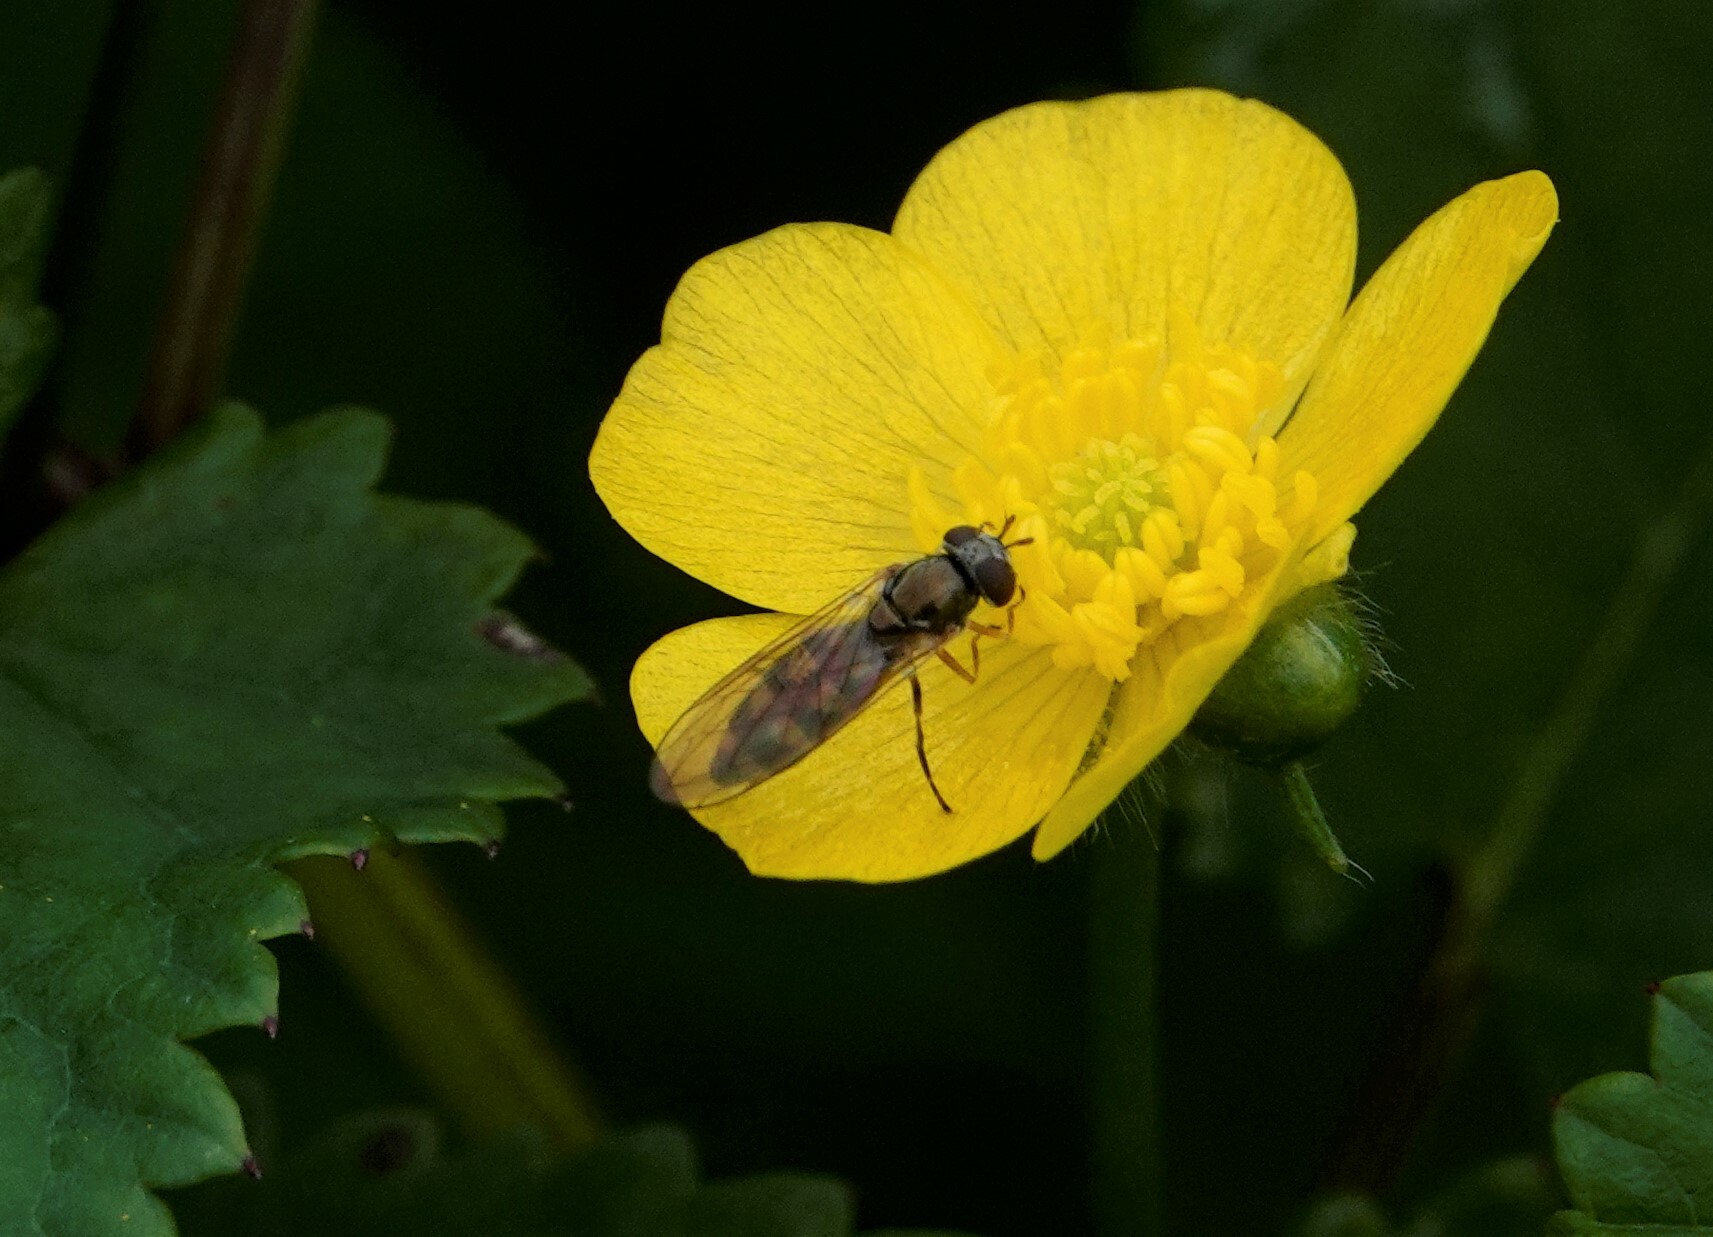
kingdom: Animalia
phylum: Arthropoda
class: Insecta
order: Diptera
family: Syrphidae
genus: Melanostoma
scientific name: Melanostoma mellina
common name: Hover fly
